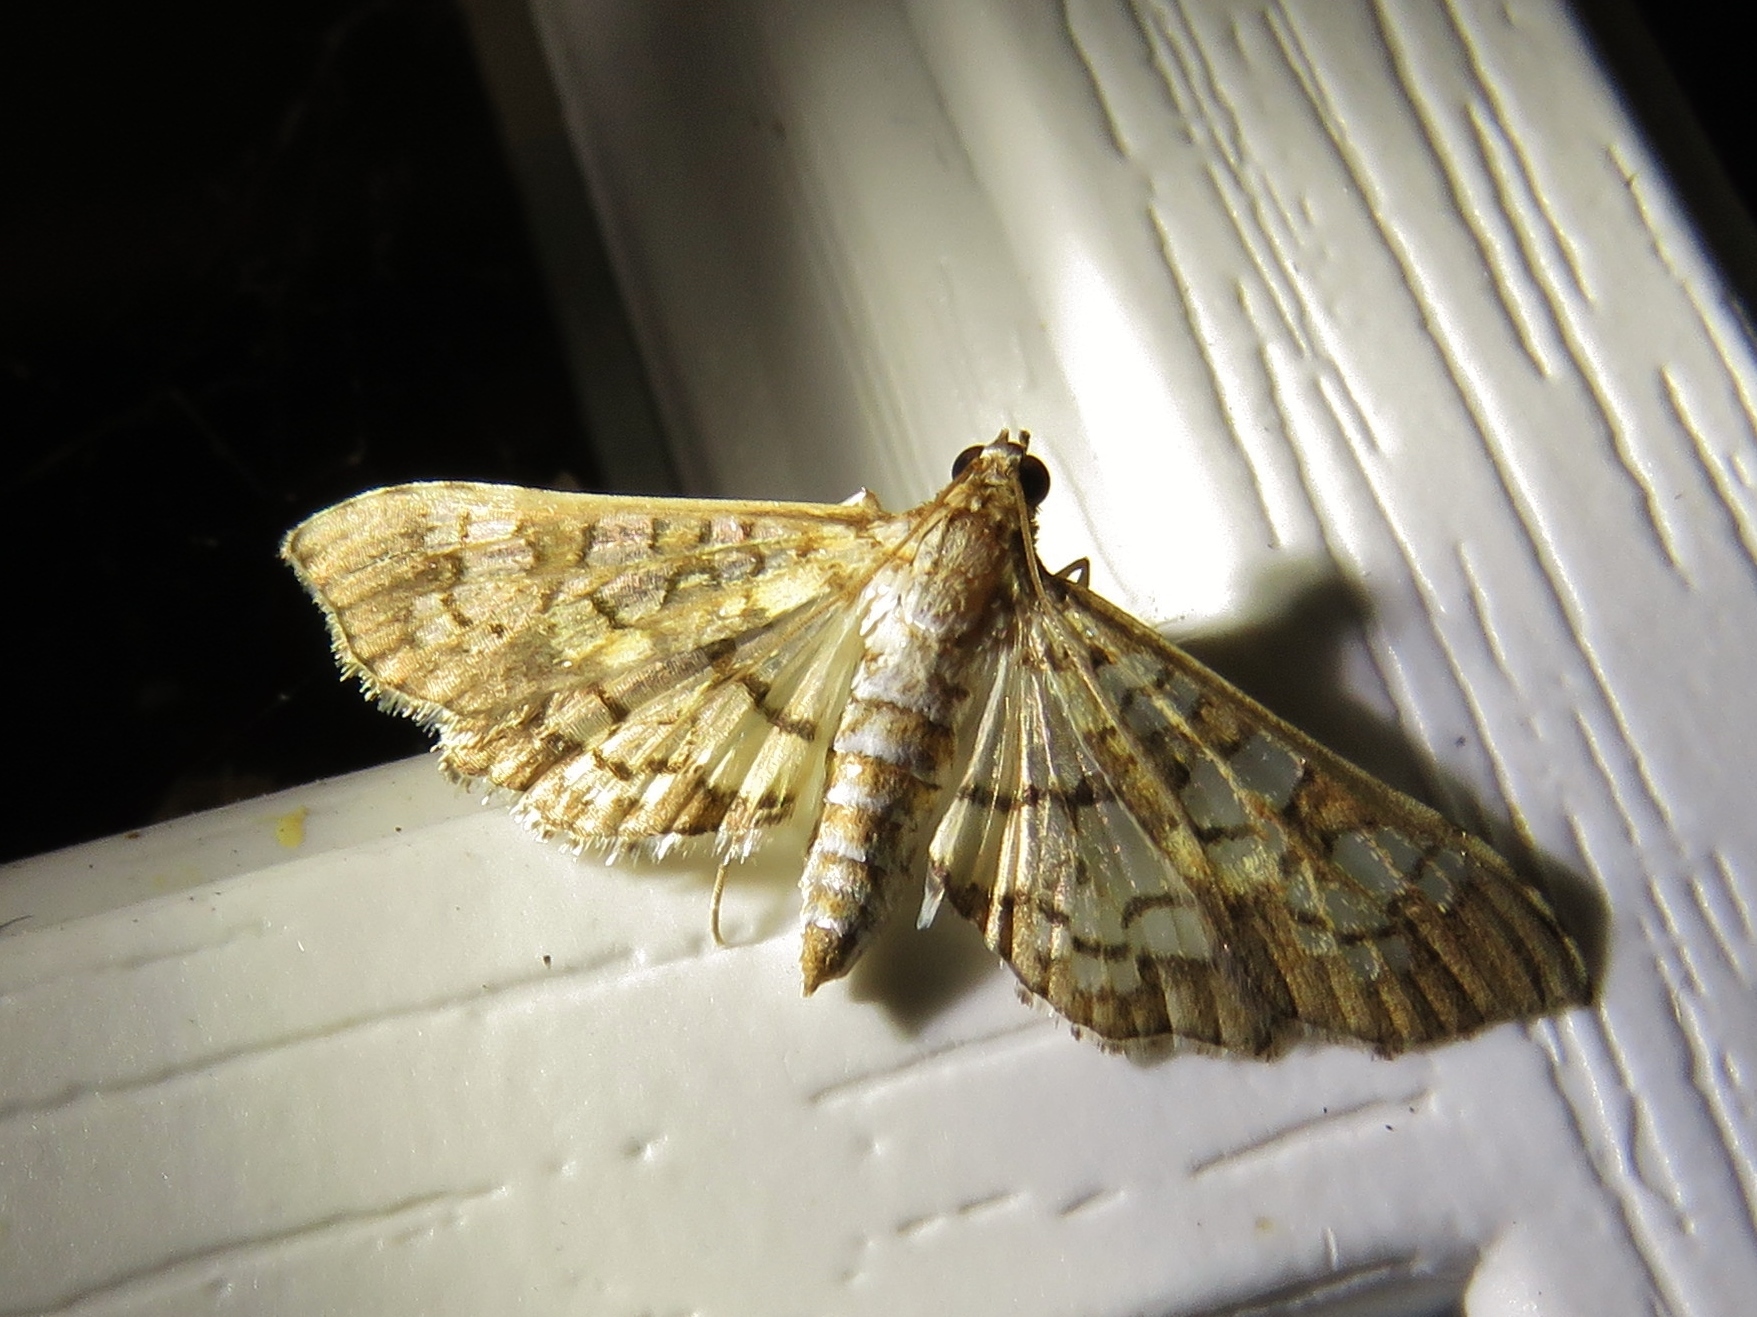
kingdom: Animalia
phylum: Arthropoda
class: Insecta
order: Lepidoptera
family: Crambidae
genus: Samea
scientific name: Samea ecclesialis
